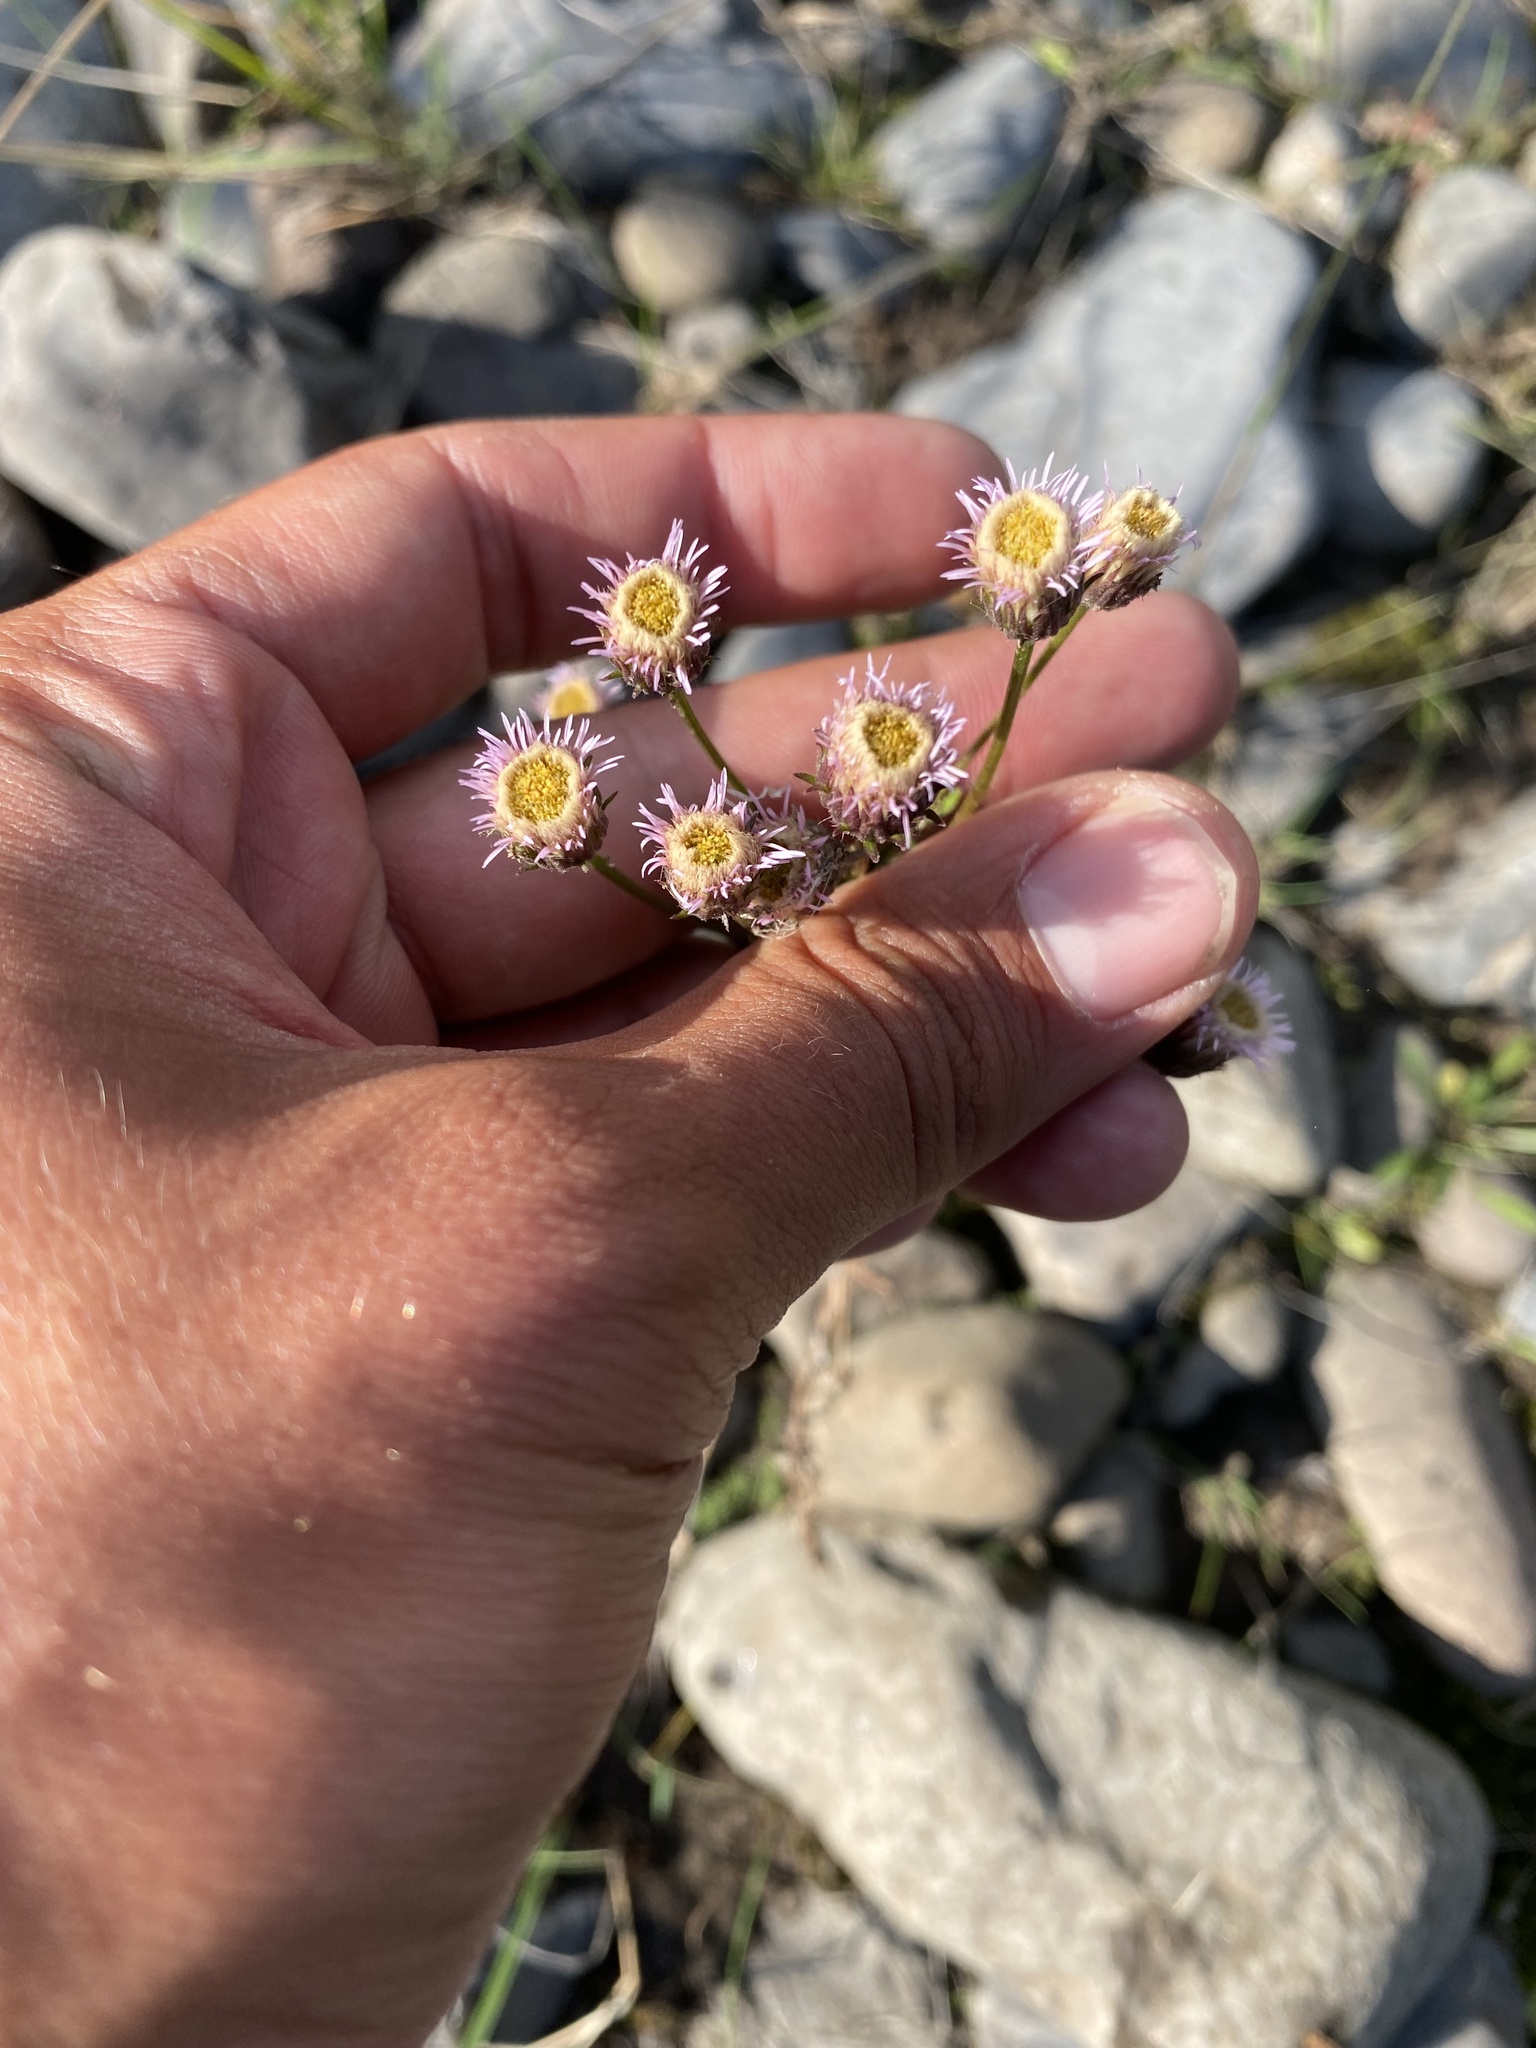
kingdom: Plantae
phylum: Tracheophyta
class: Magnoliopsida
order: Asterales
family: Asteraceae
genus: Erigeron
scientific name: Erigeron acris
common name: Blue fleabane
